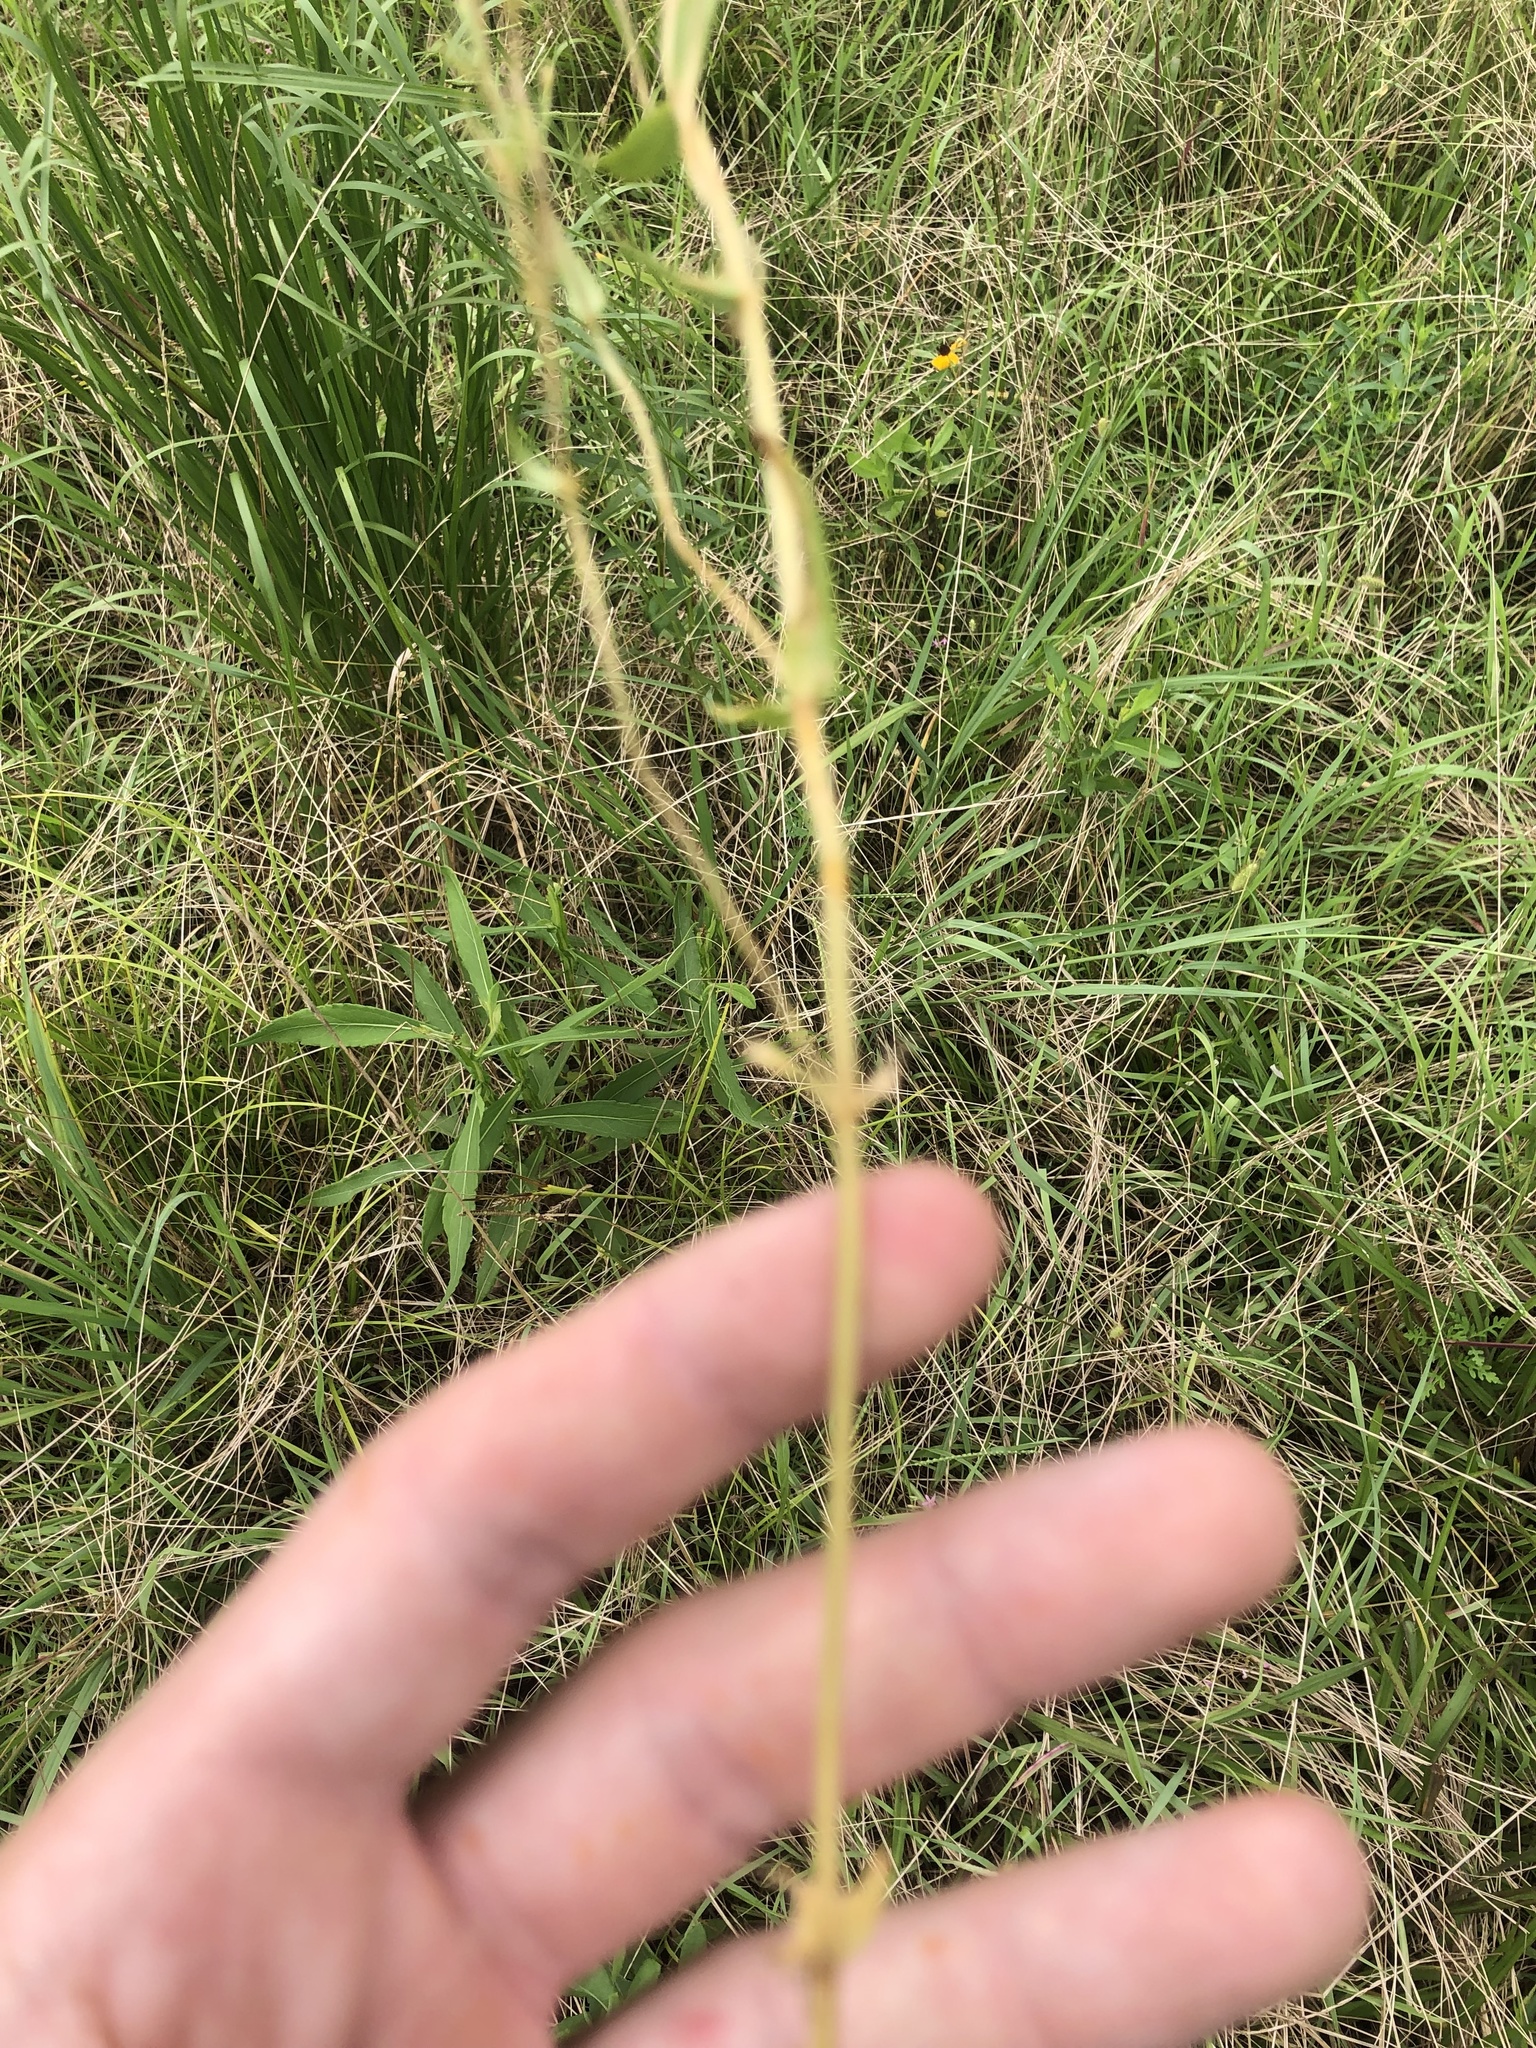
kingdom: Plantae
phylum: Tracheophyta
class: Magnoliopsida
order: Gentianales
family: Gentianaceae
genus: Centaurium
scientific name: Centaurium pulchellum
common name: Lesser centaury
